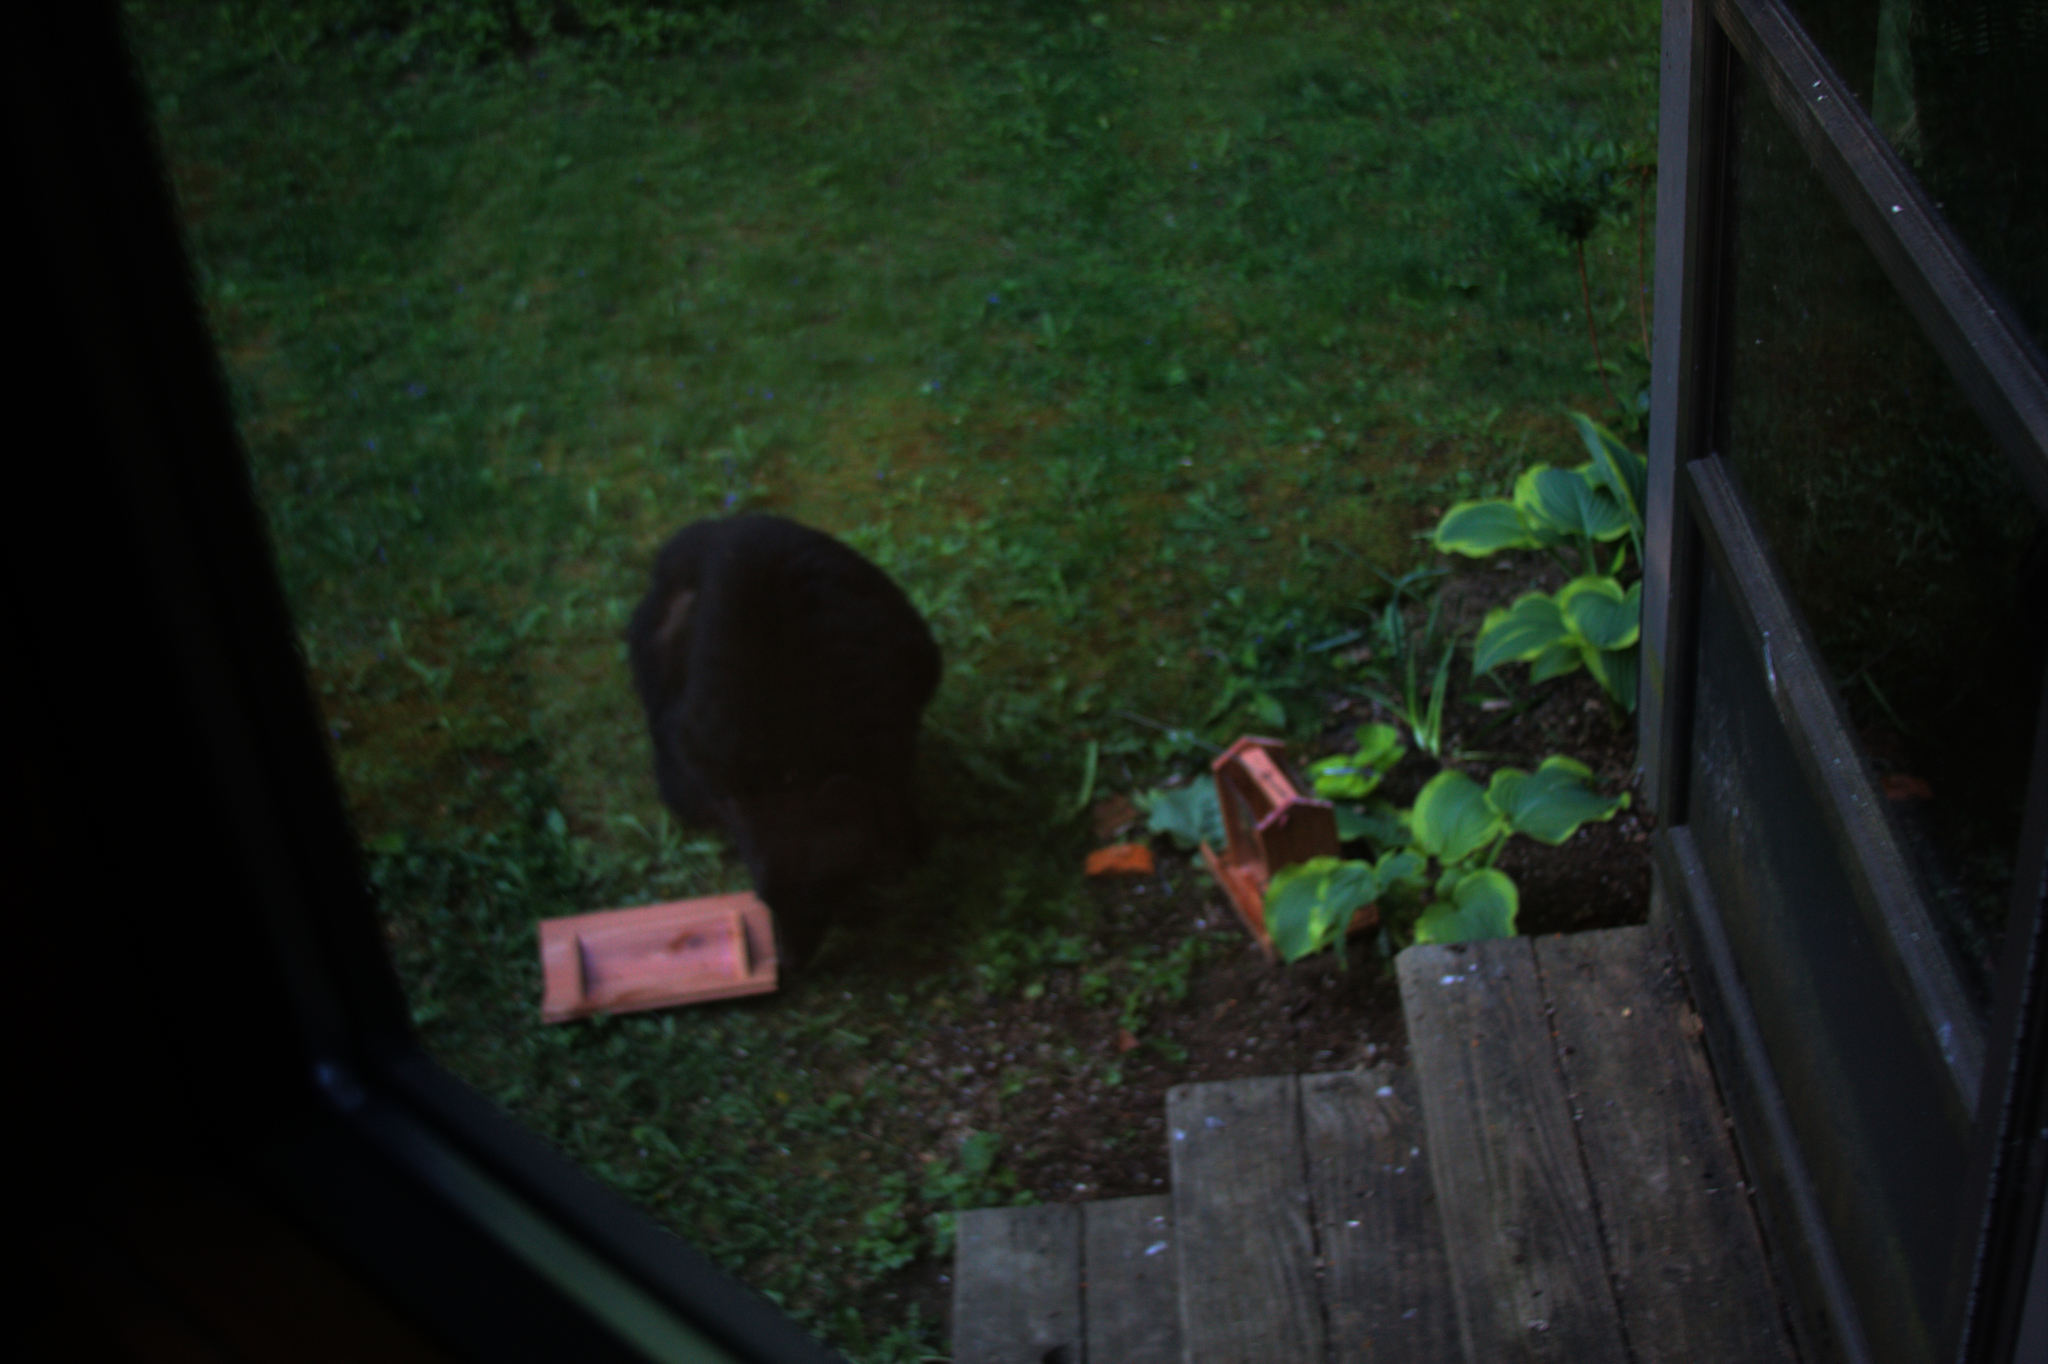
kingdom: Animalia
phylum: Chordata
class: Mammalia
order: Carnivora
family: Ursidae
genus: Ursus
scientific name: Ursus americanus
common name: American black bear
